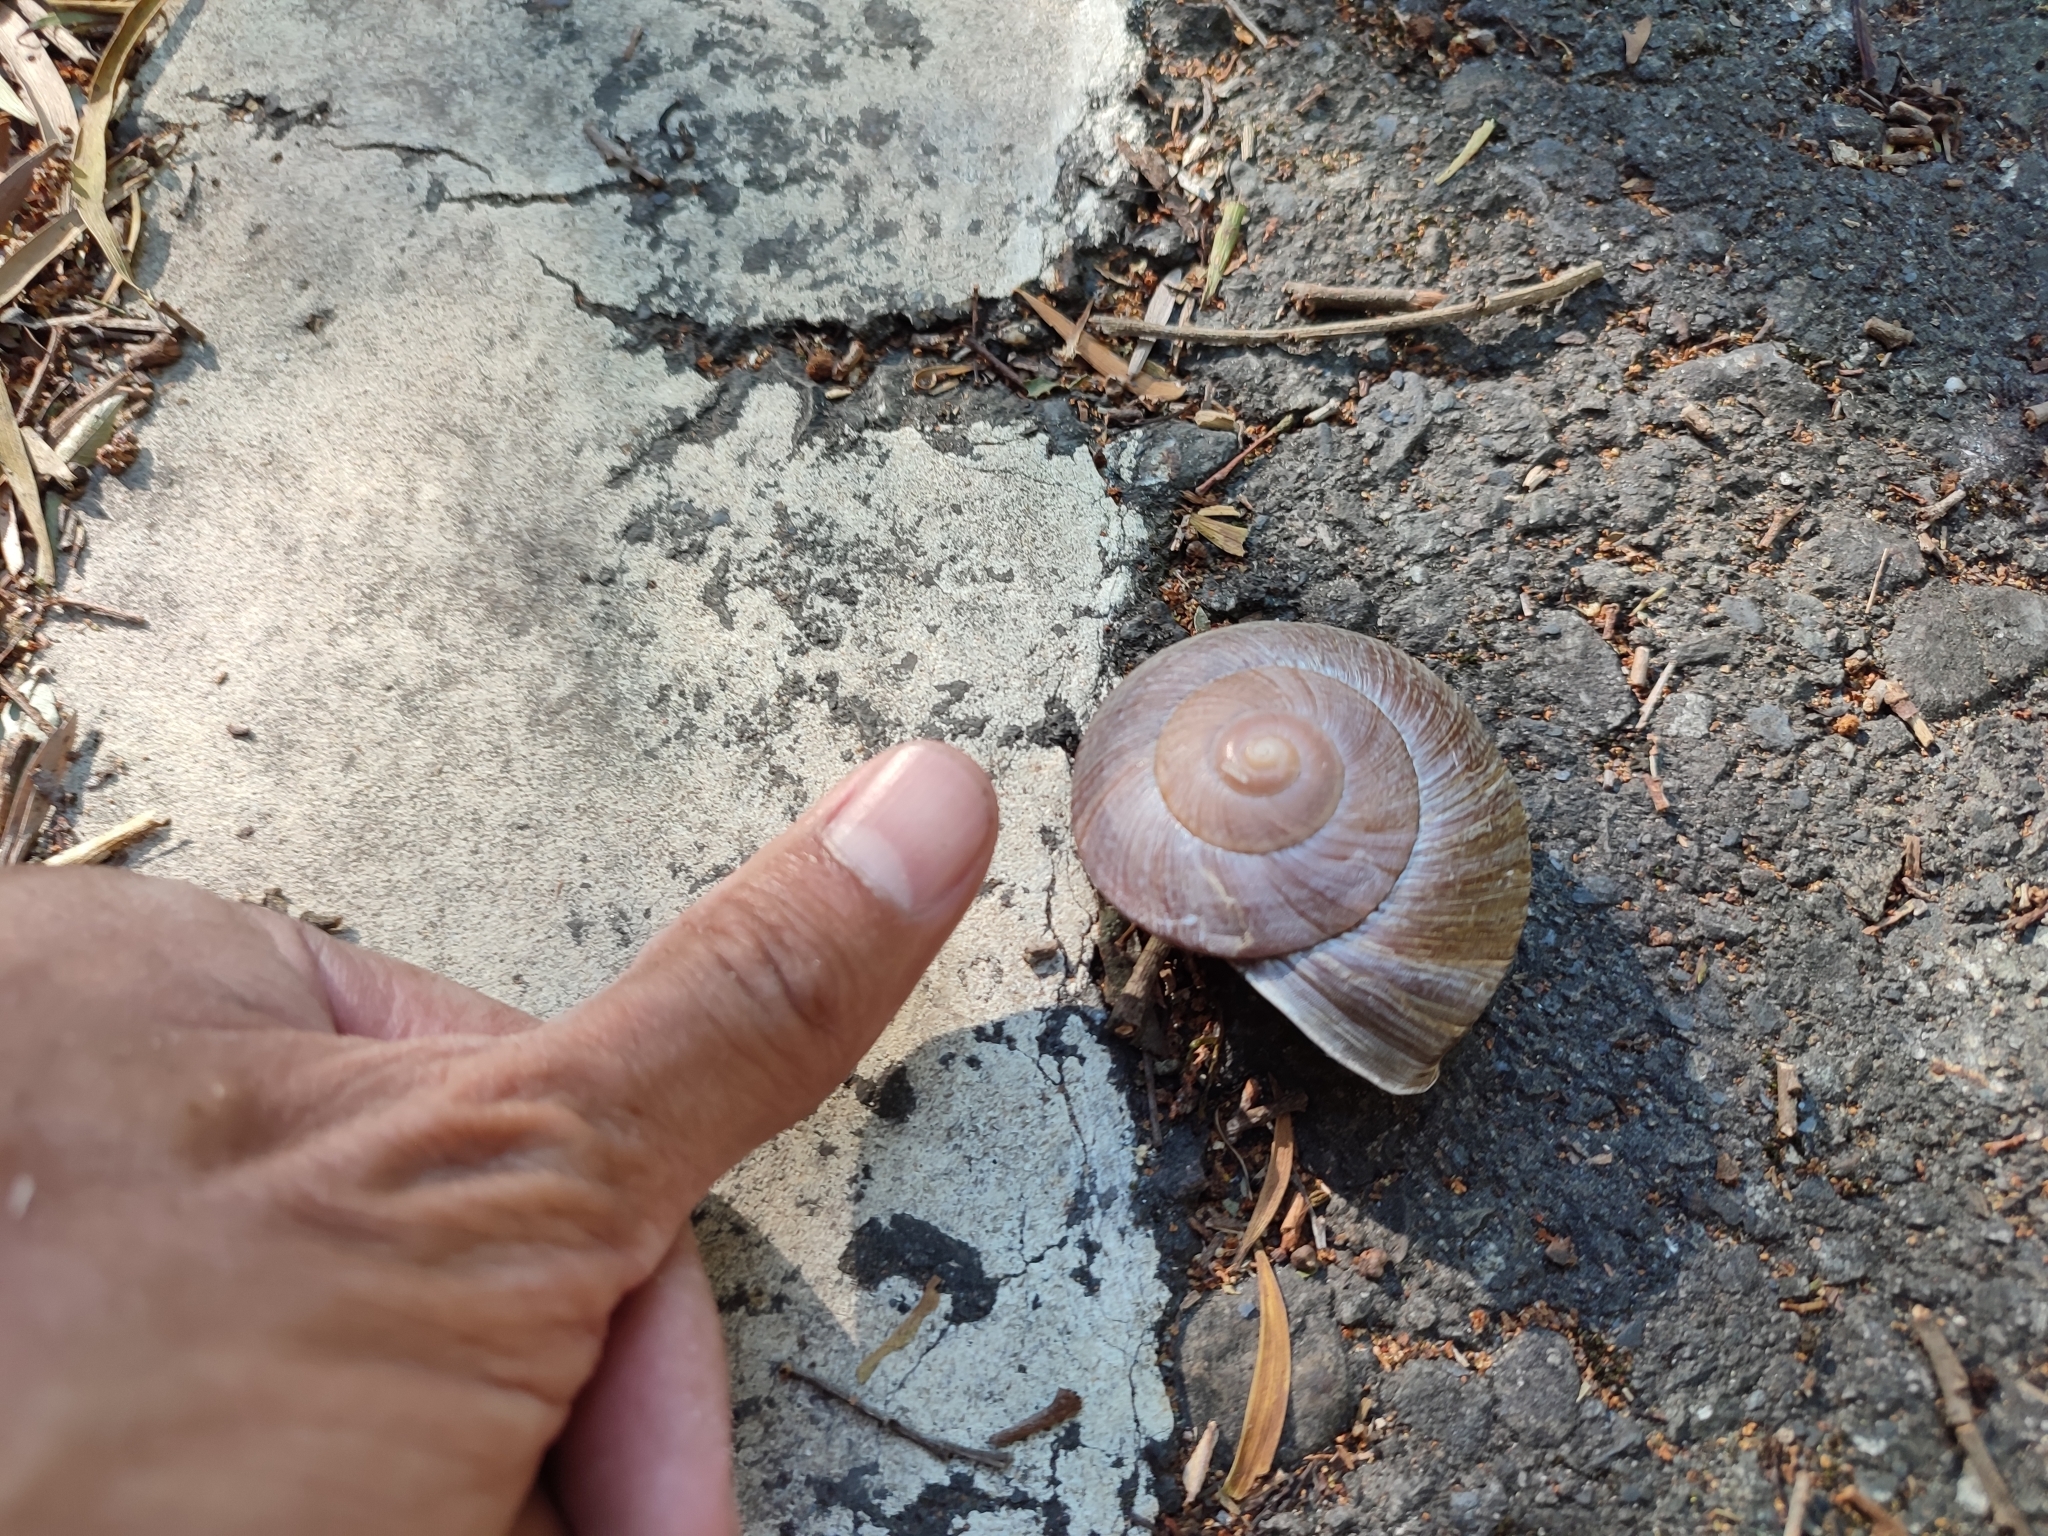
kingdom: Animalia
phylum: Mollusca
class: Gastropoda
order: Stylommatophora
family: Camaenidae
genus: Nesiohelix
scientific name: Nesiohelix swinhoei
